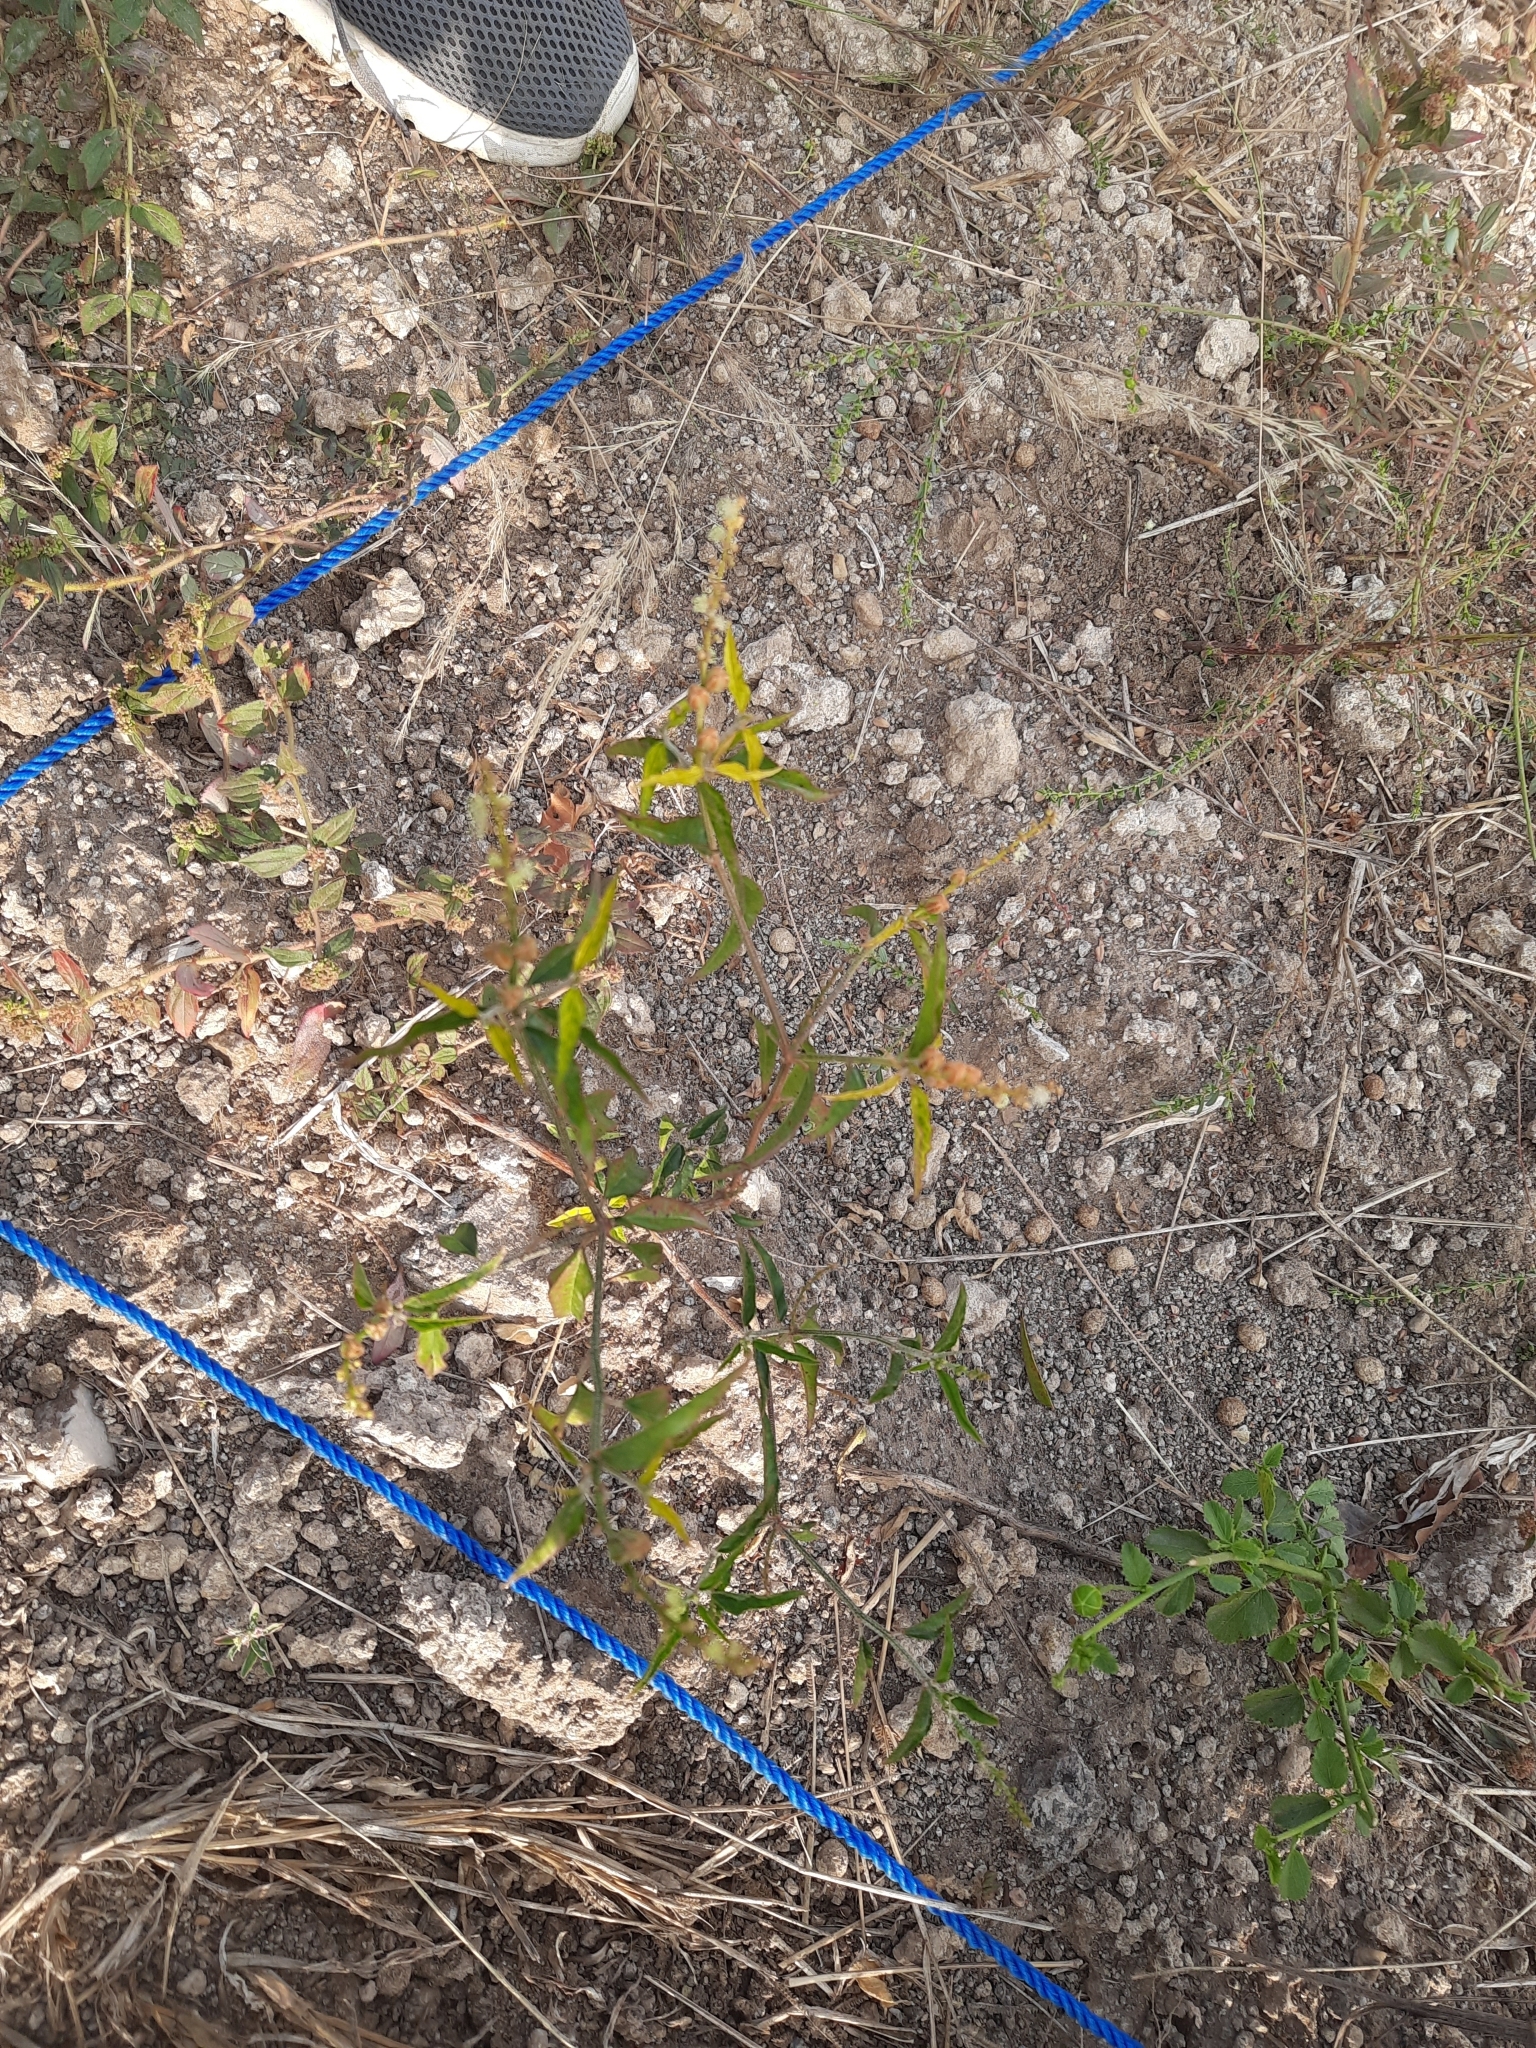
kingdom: Plantae
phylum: Tracheophyta
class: Magnoliopsida
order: Malpighiales
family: Euphorbiaceae
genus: Croton
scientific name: Croton bonplandianus
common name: Bonpland's croton
